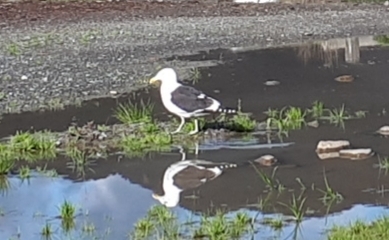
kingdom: Animalia
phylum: Chordata
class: Aves
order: Charadriiformes
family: Laridae
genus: Larus
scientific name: Larus dominicanus
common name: Kelp gull
